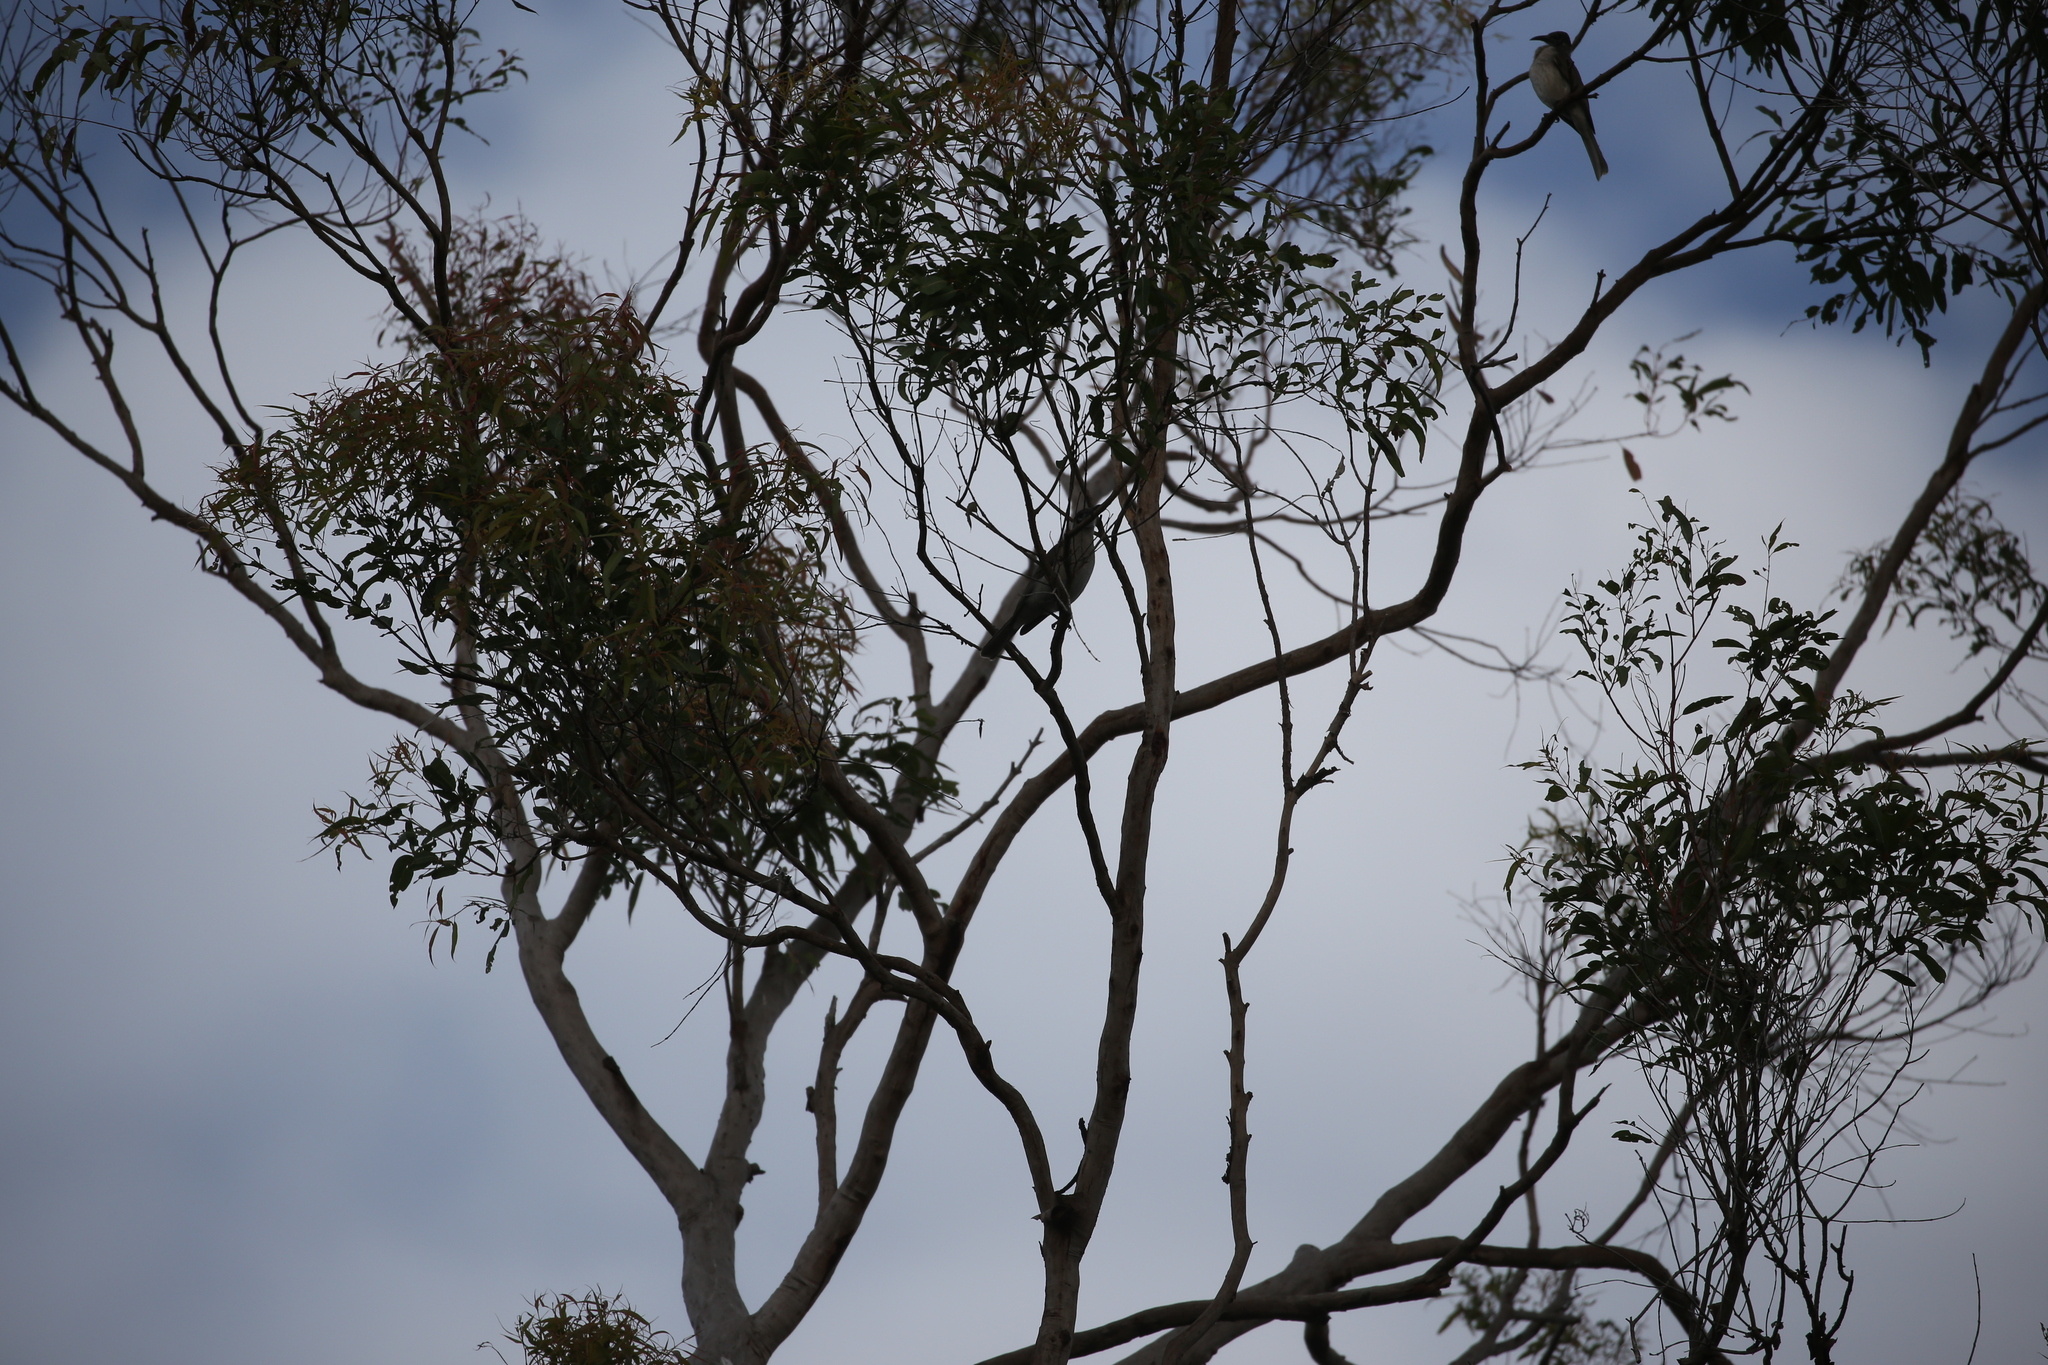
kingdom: Animalia
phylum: Chordata
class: Aves
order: Passeriformes
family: Meliphagidae
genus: Philemon
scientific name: Philemon citreogularis
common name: Little friarbird
